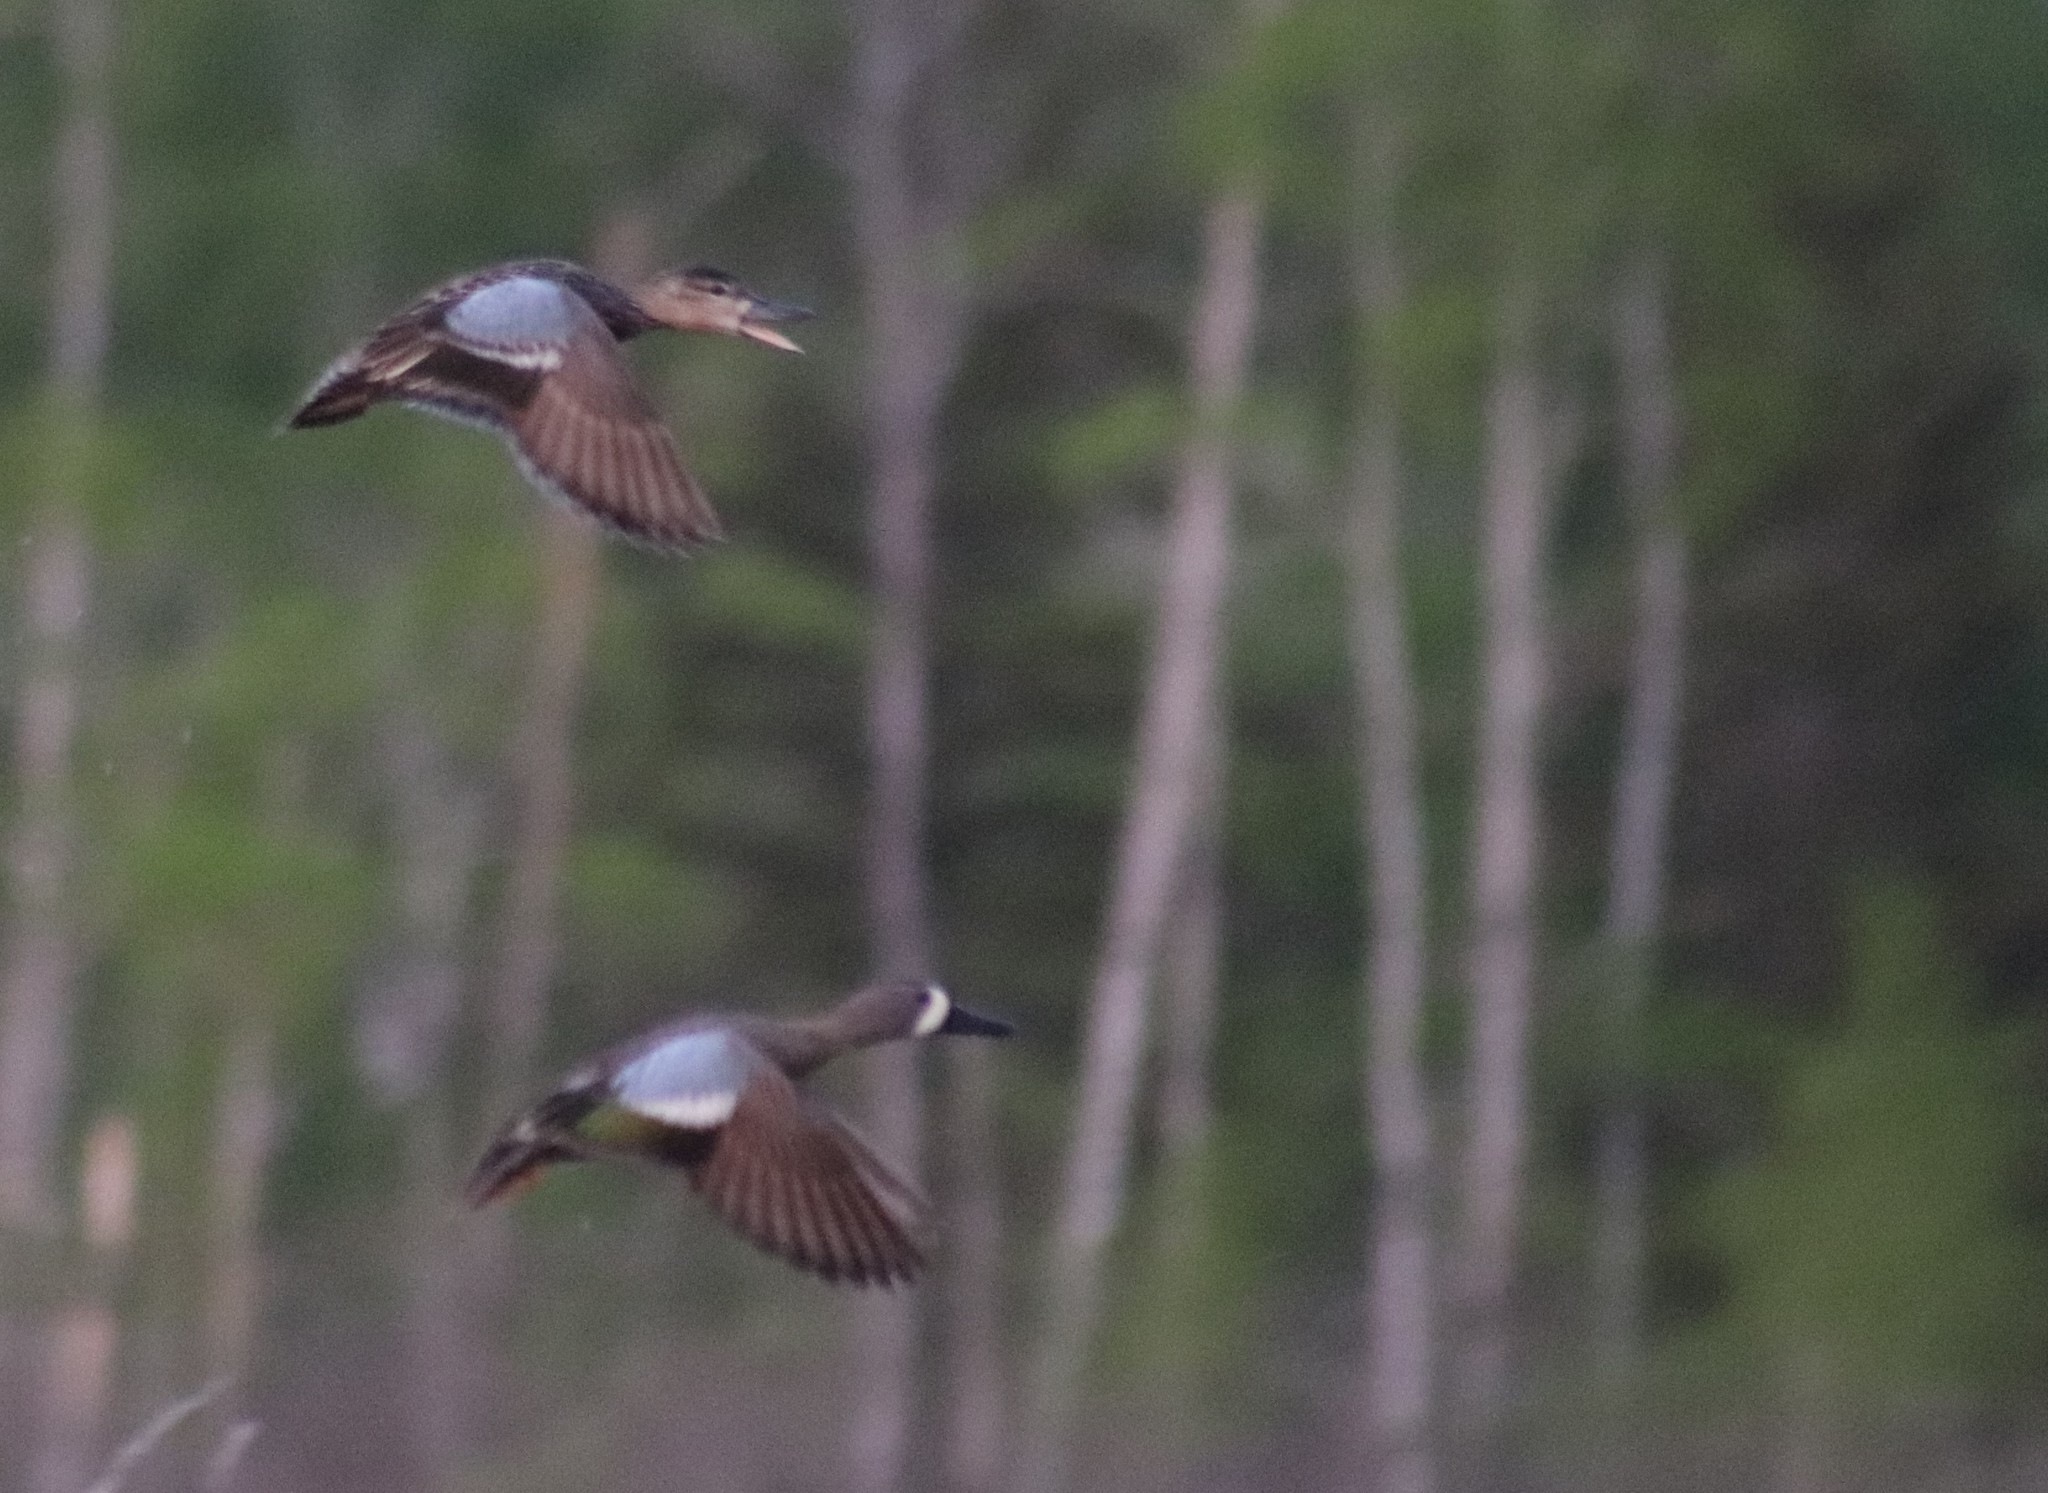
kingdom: Animalia
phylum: Chordata
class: Aves
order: Anseriformes
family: Anatidae
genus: Spatula
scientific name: Spatula discors
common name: Blue-winged teal
